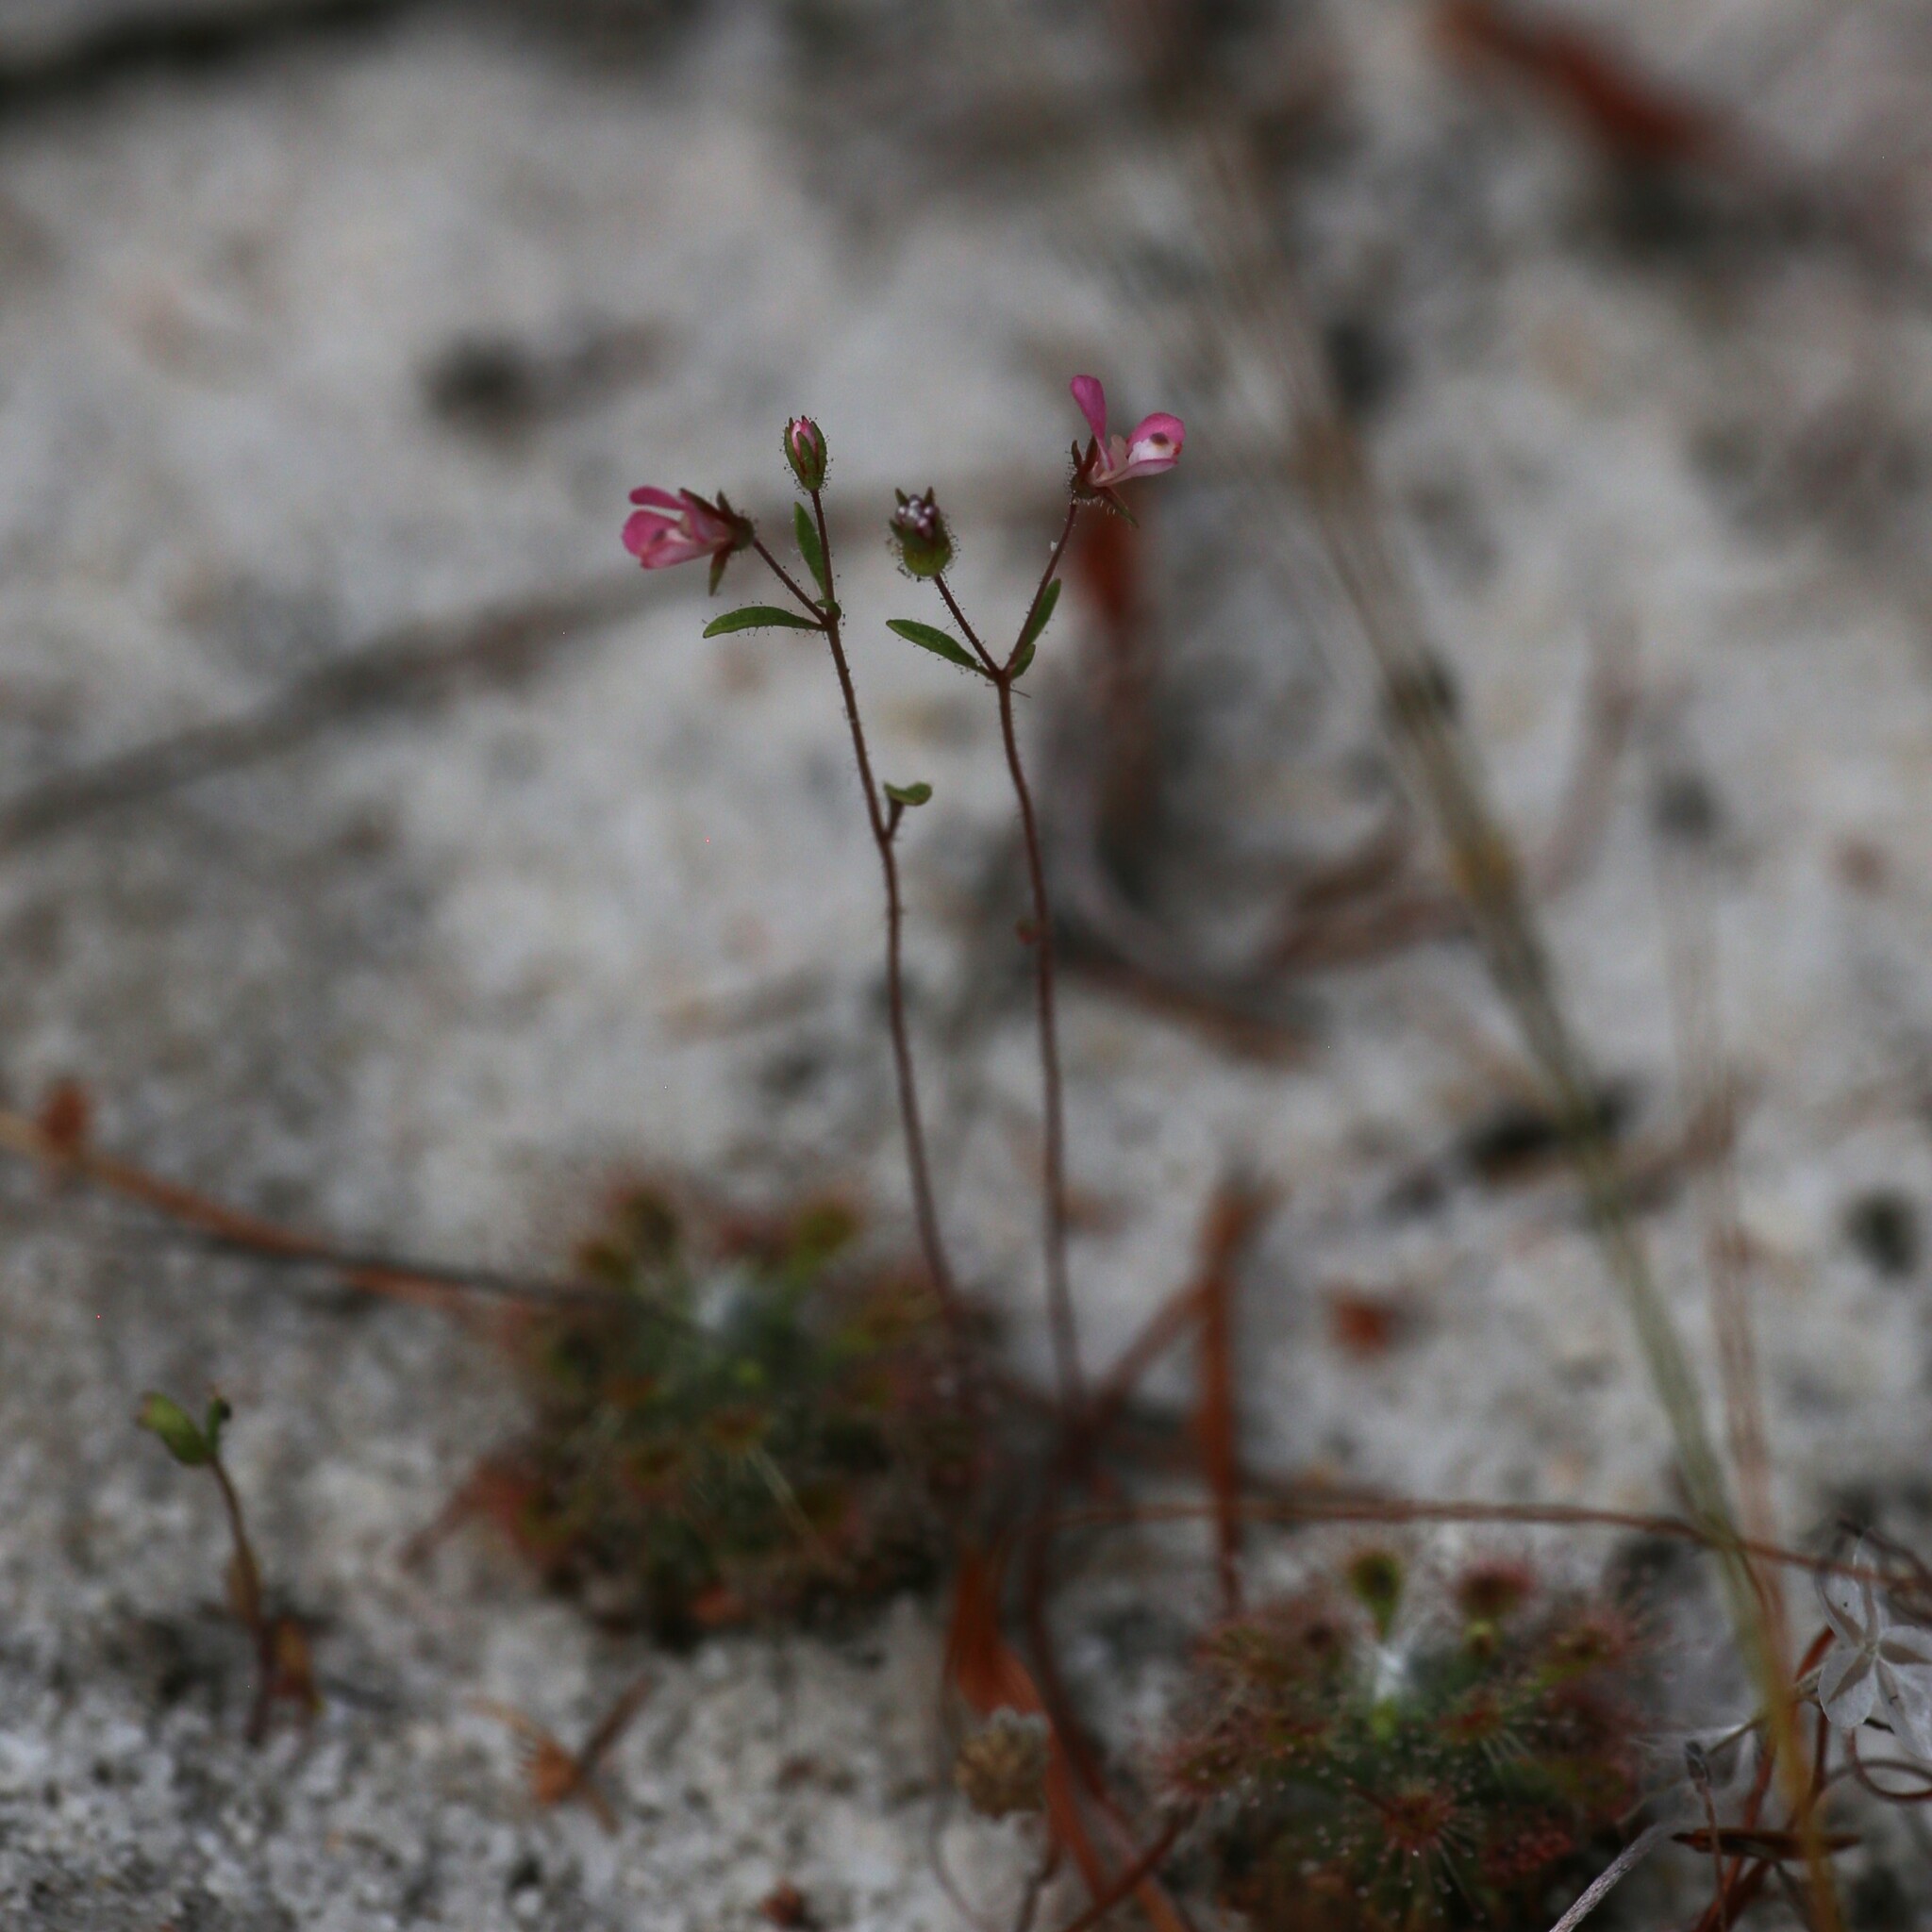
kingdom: Plantae
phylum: Tracheophyta
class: Magnoliopsida
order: Asterales
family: Stylidiaceae
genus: Levenhookia
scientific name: Levenhookia stipitata
